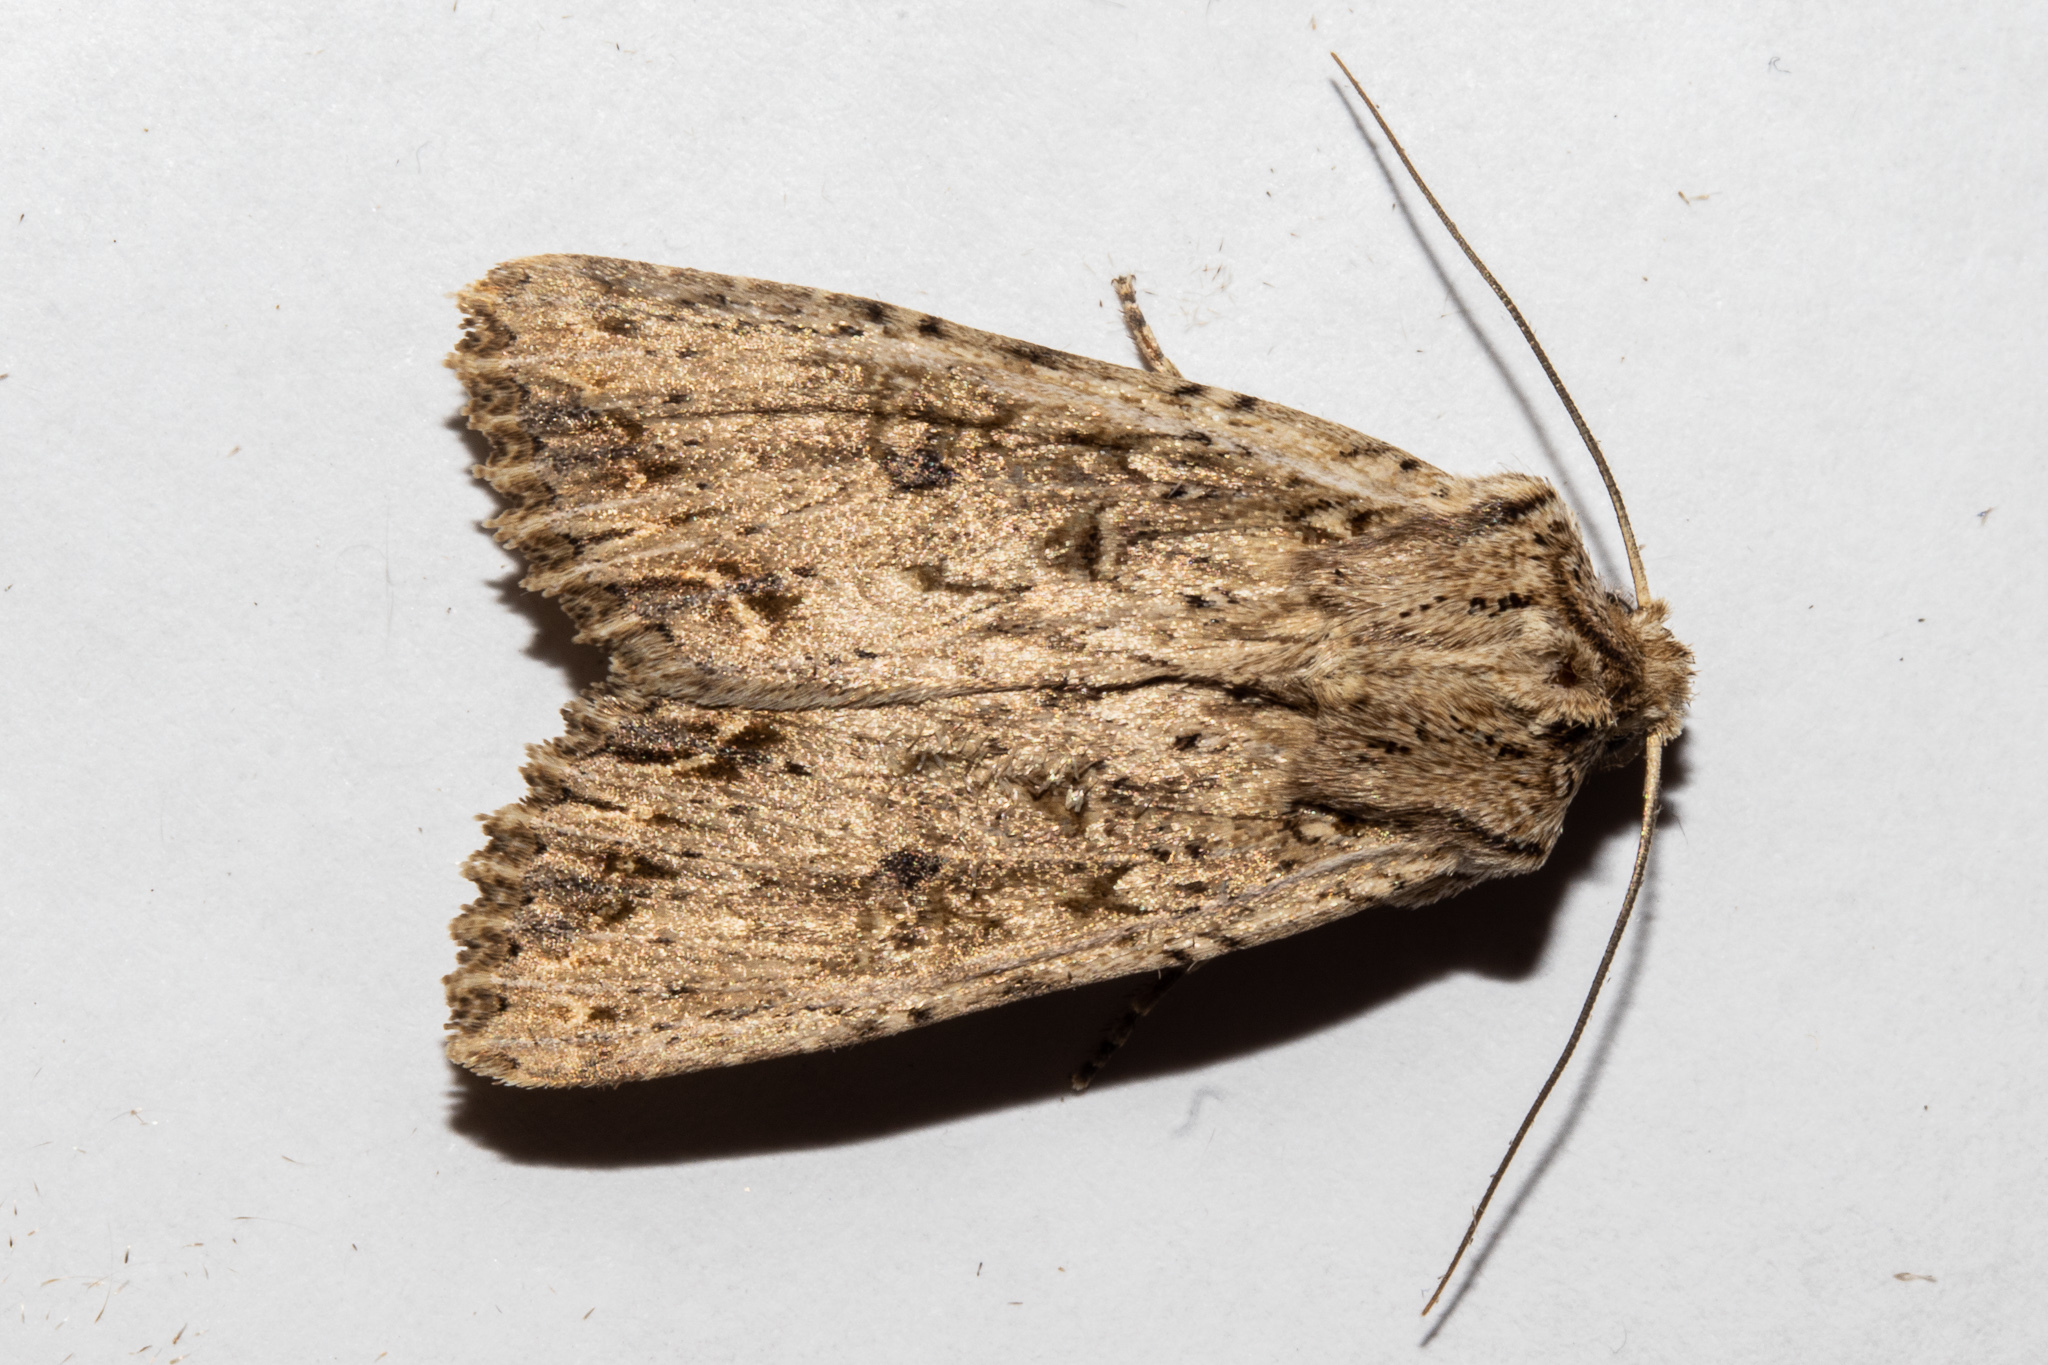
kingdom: Animalia
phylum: Arthropoda
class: Insecta
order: Lepidoptera
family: Noctuidae
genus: Ichneutica
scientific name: Ichneutica lignana
